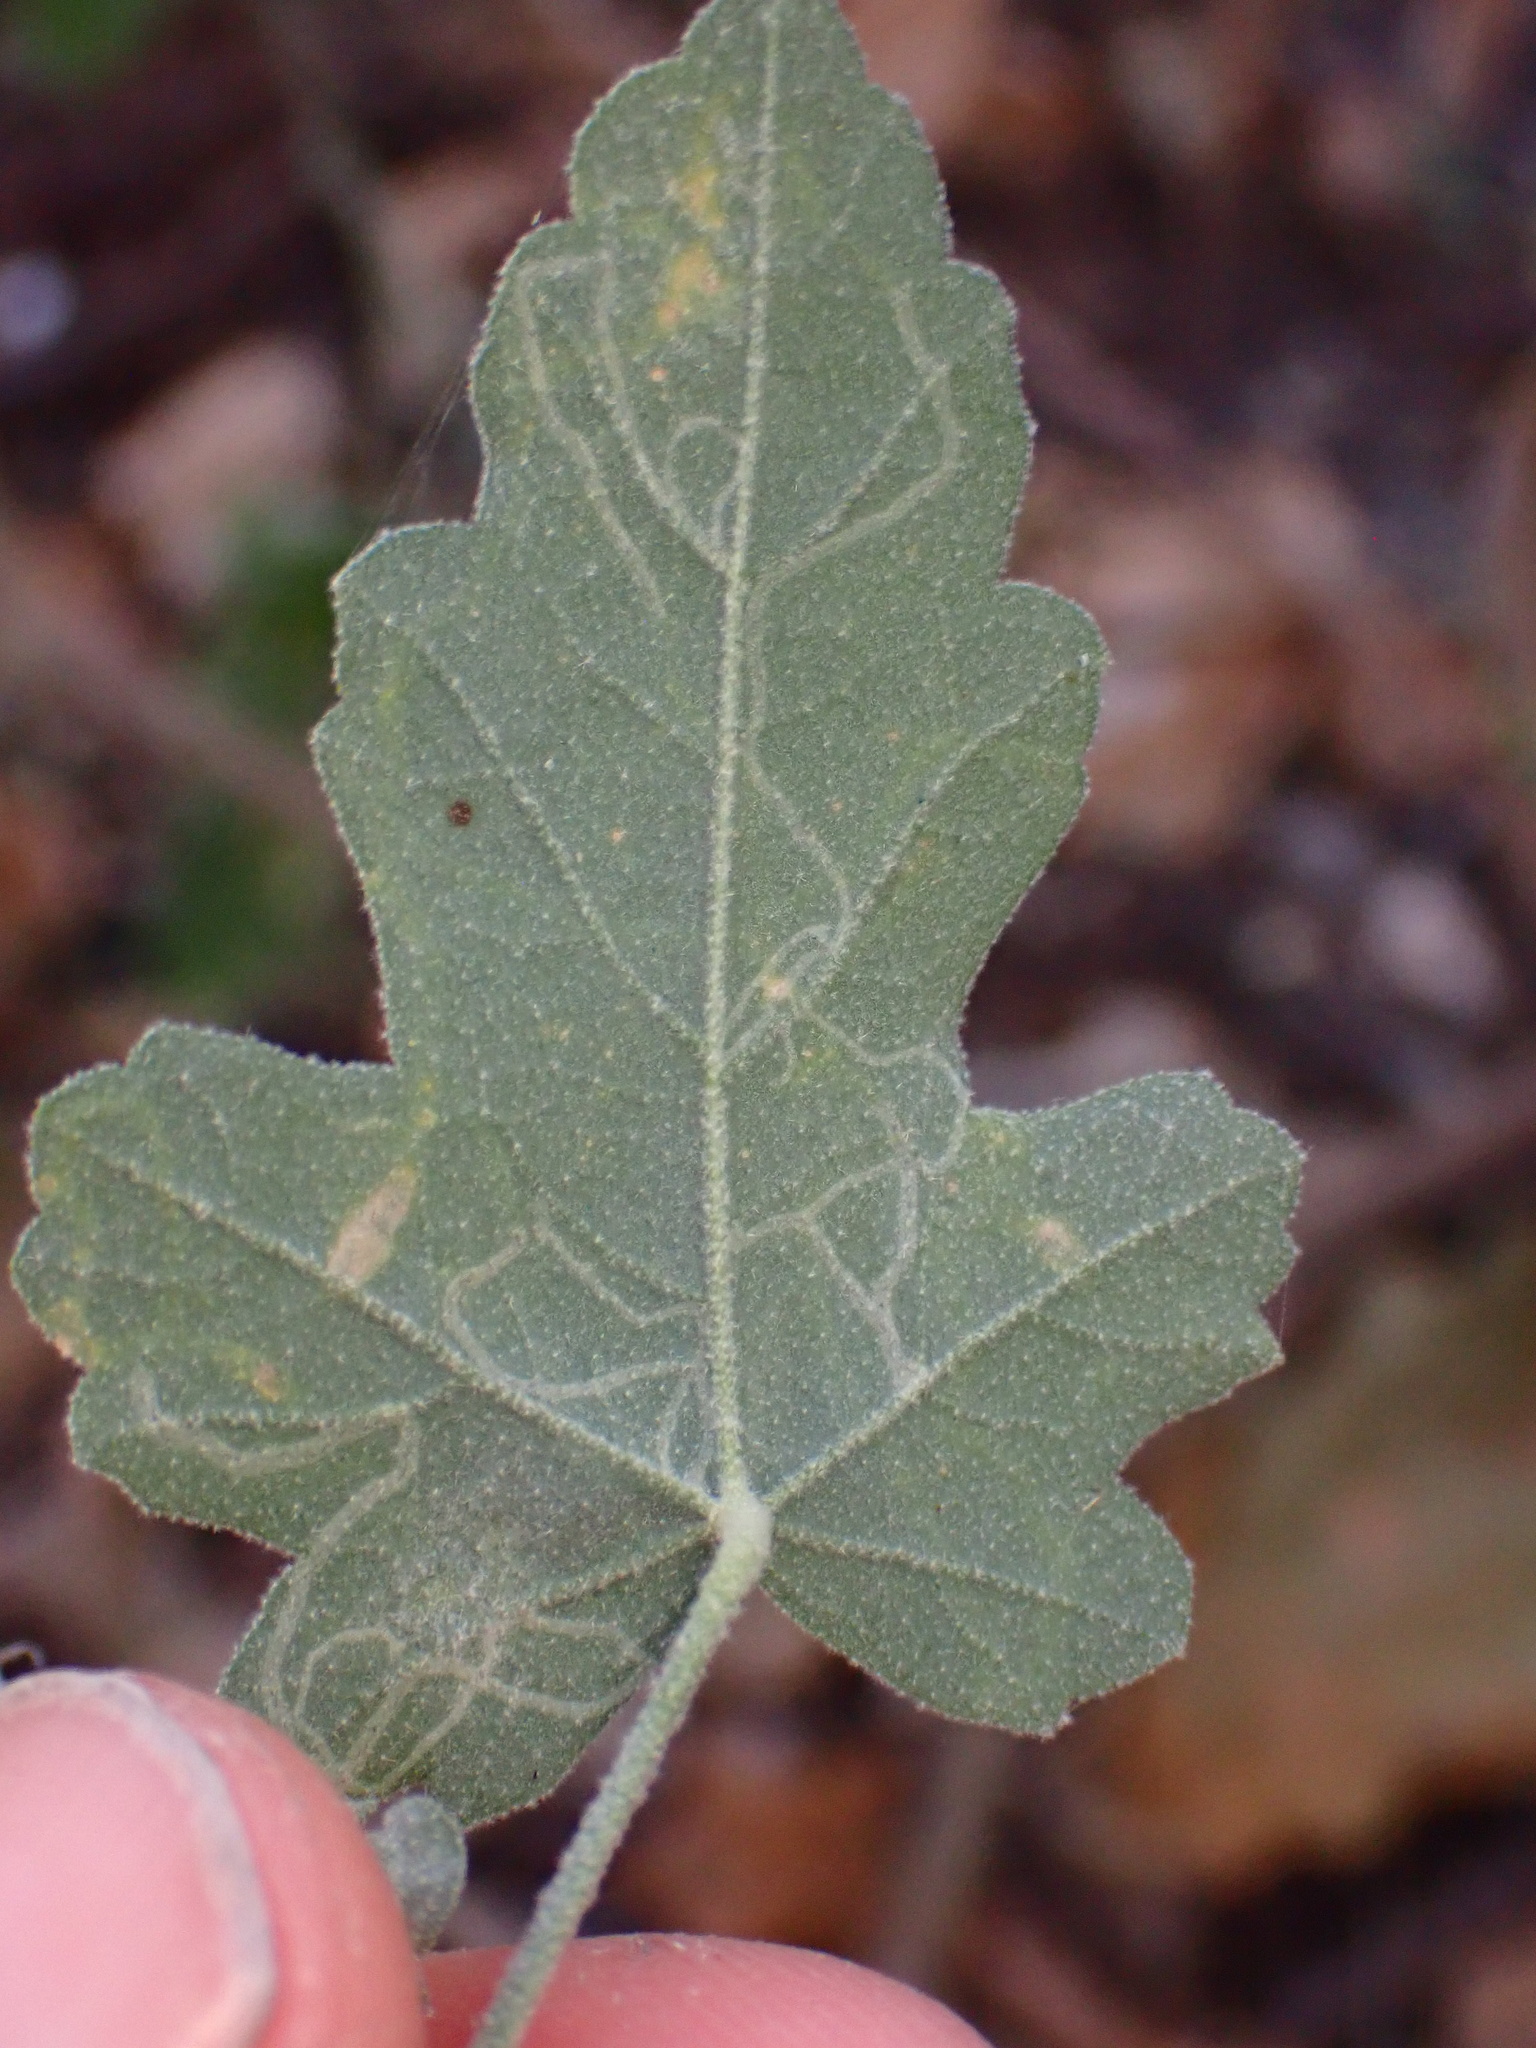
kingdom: Animalia
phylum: Arthropoda
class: Insecta
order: Diptera
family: Agromyzidae
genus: Calycomyza
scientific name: Calycomyza malvae
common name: Mallow leaf miner
